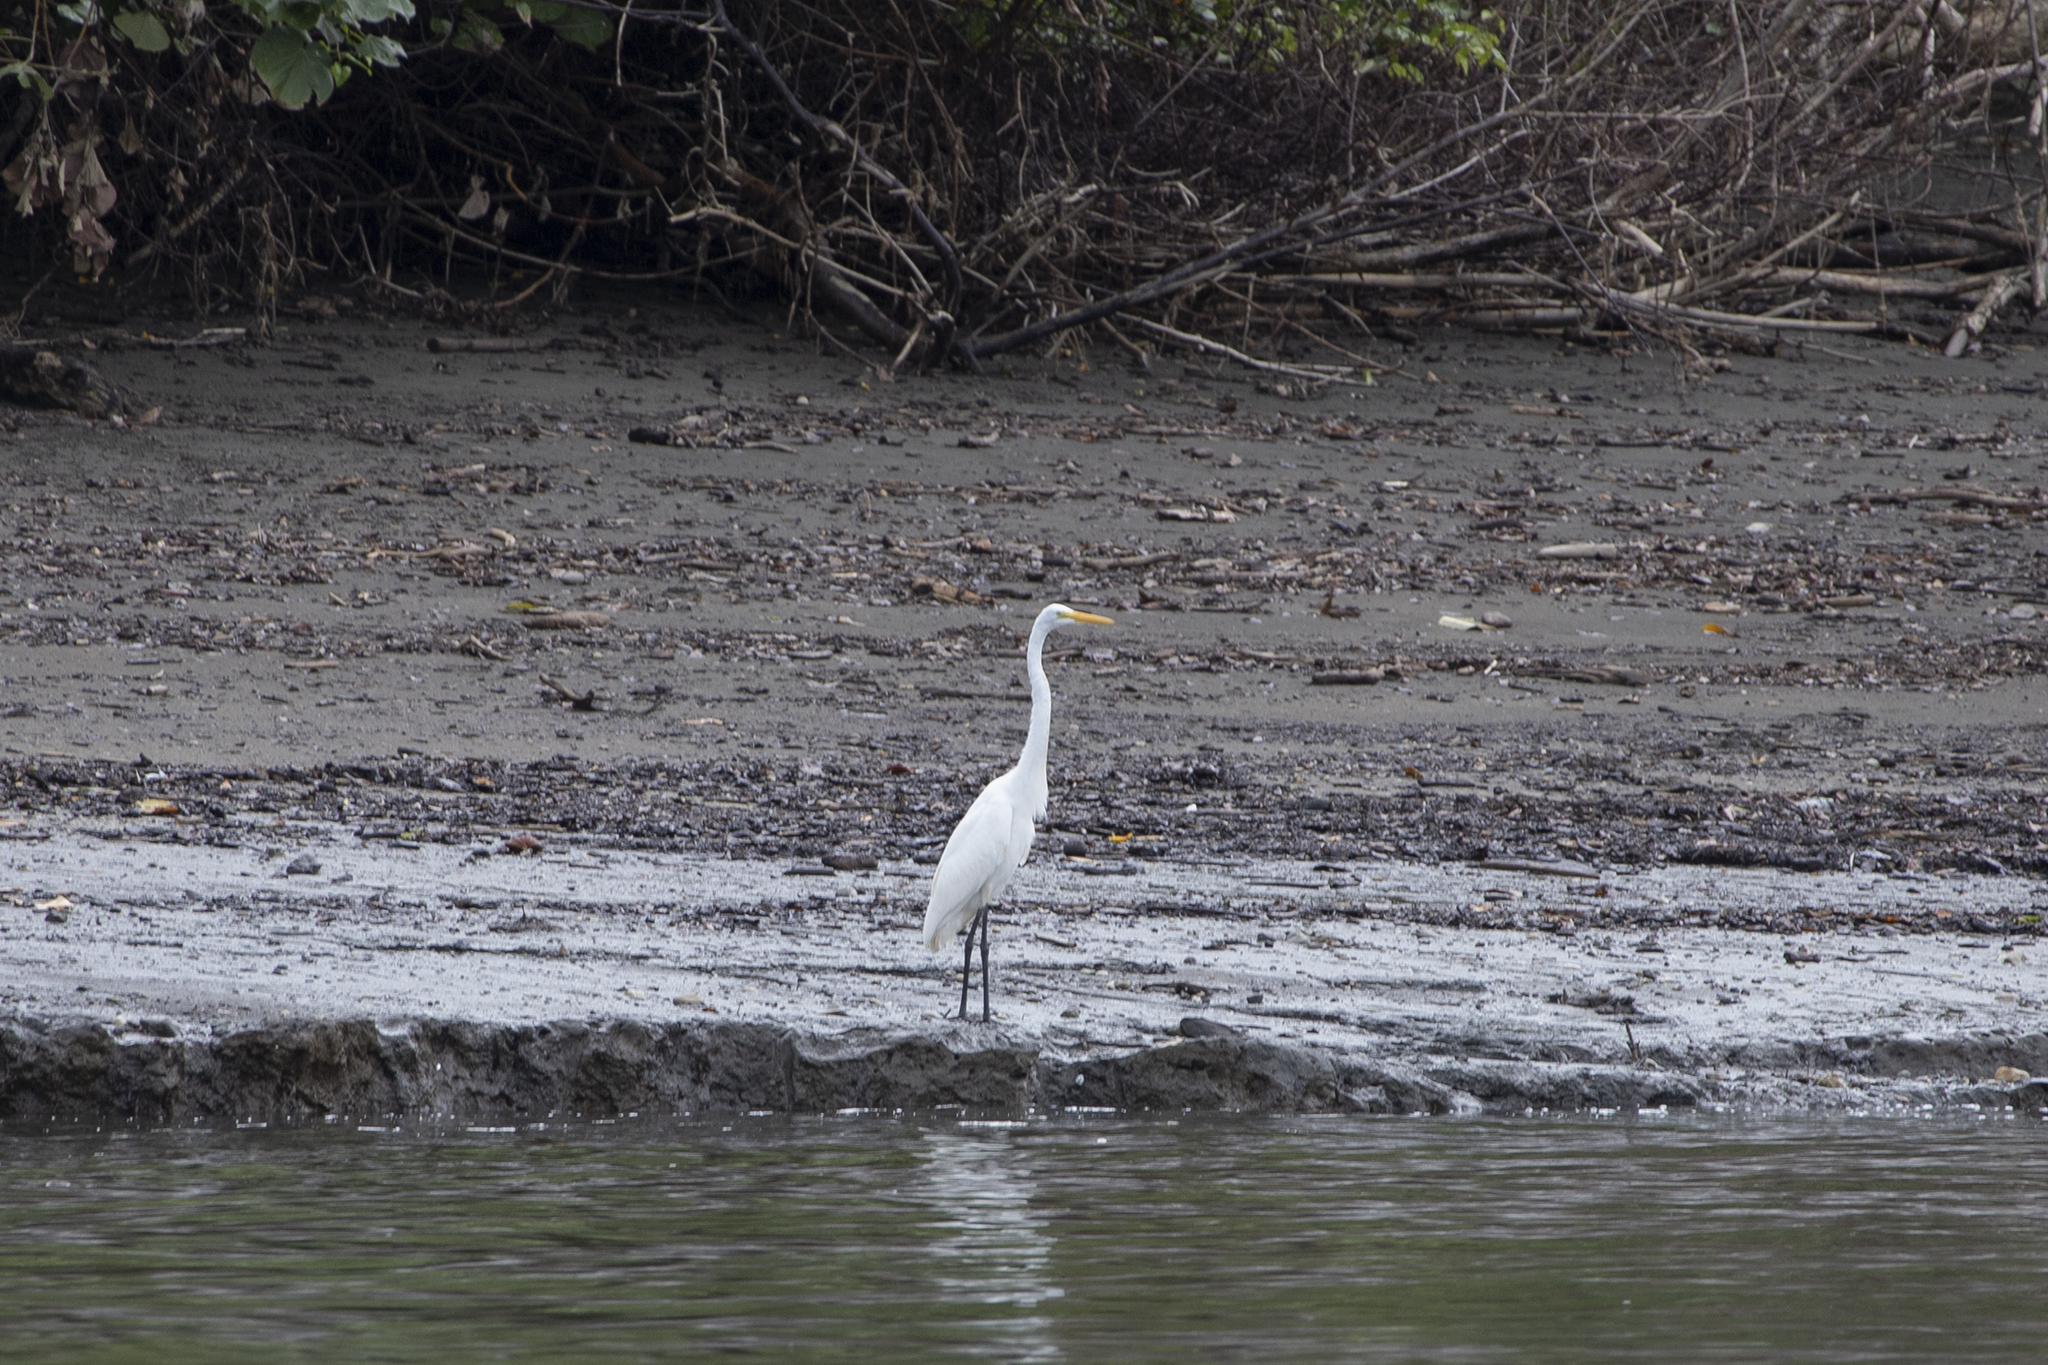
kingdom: Animalia
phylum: Chordata
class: Aves
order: Pelecaniformes
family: Ardeidae
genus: Ardea
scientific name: Ardea alba
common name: Great egret
